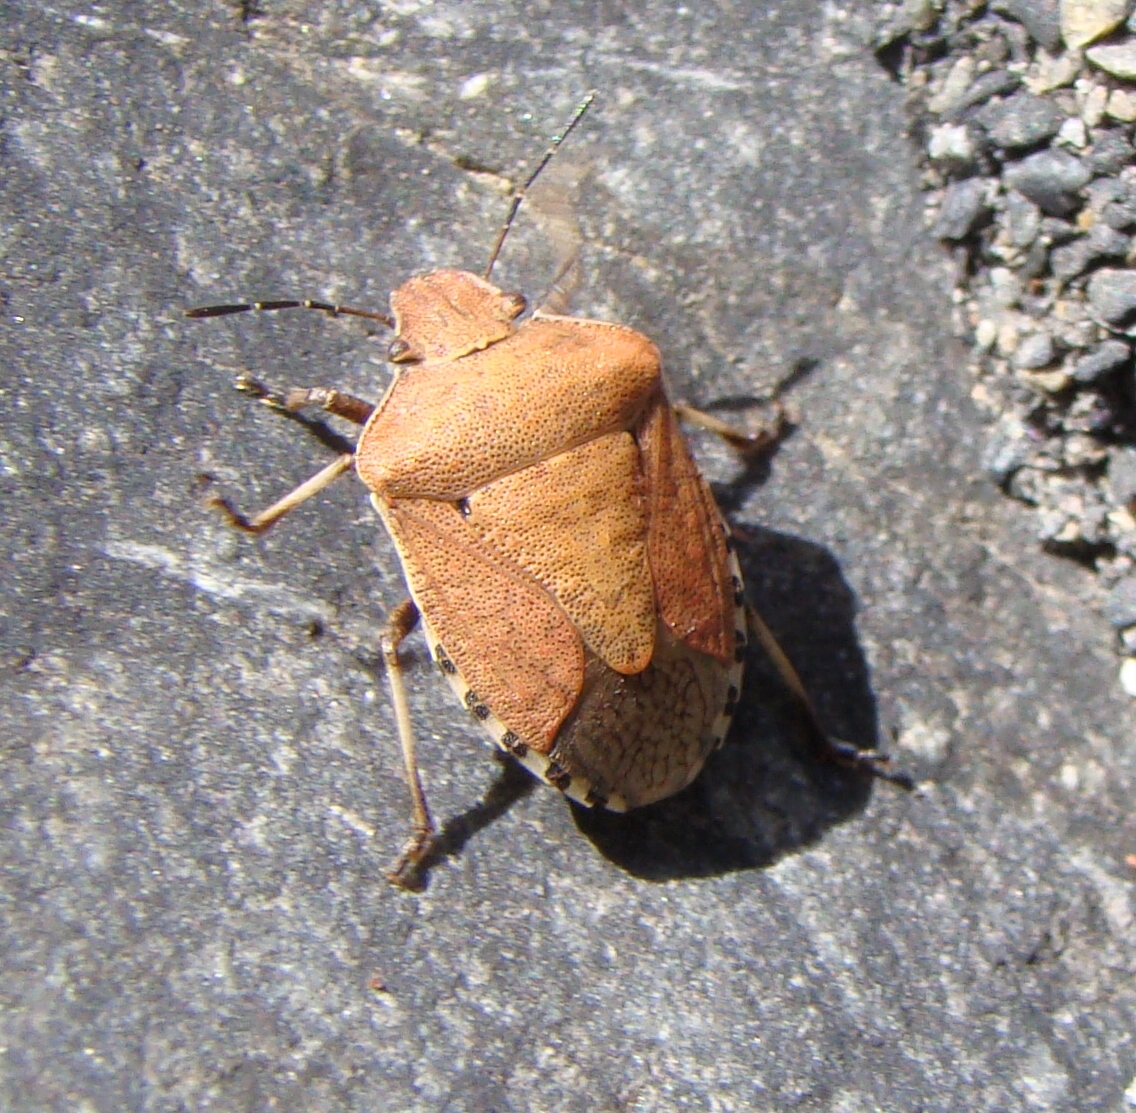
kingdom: Animalia
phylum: Arthropoda
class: Insecta
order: Hemiptera
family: Pentatomidae
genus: Dictyotus
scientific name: Dictyotus caenosus
